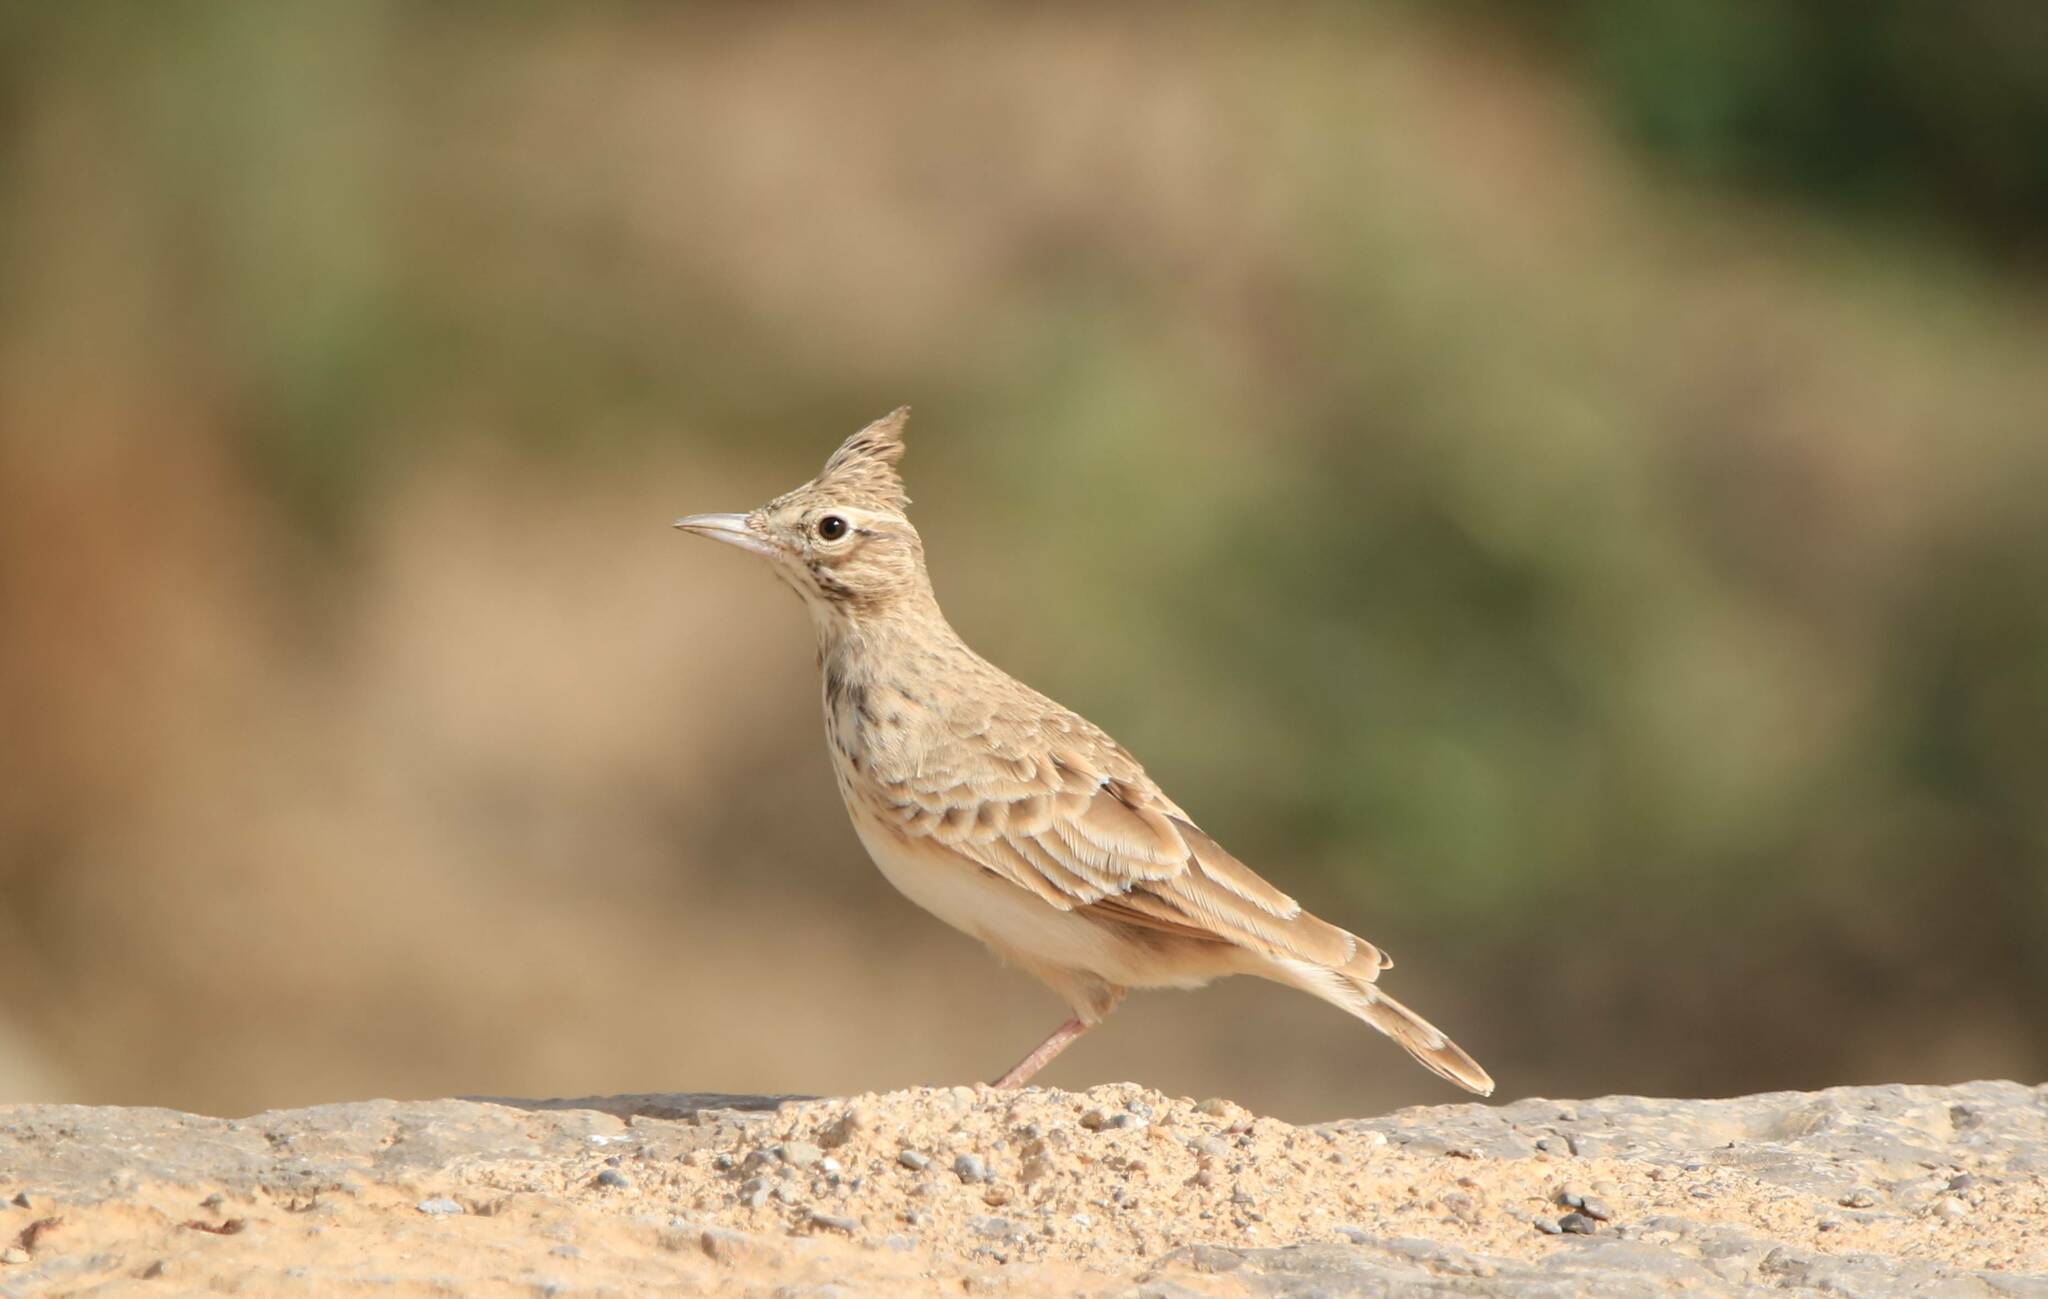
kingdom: Animalia
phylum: Chordata
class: Aves
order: Passeriformes
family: Alaudidae
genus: Galerida
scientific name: Galerida cristata
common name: Crested lark
